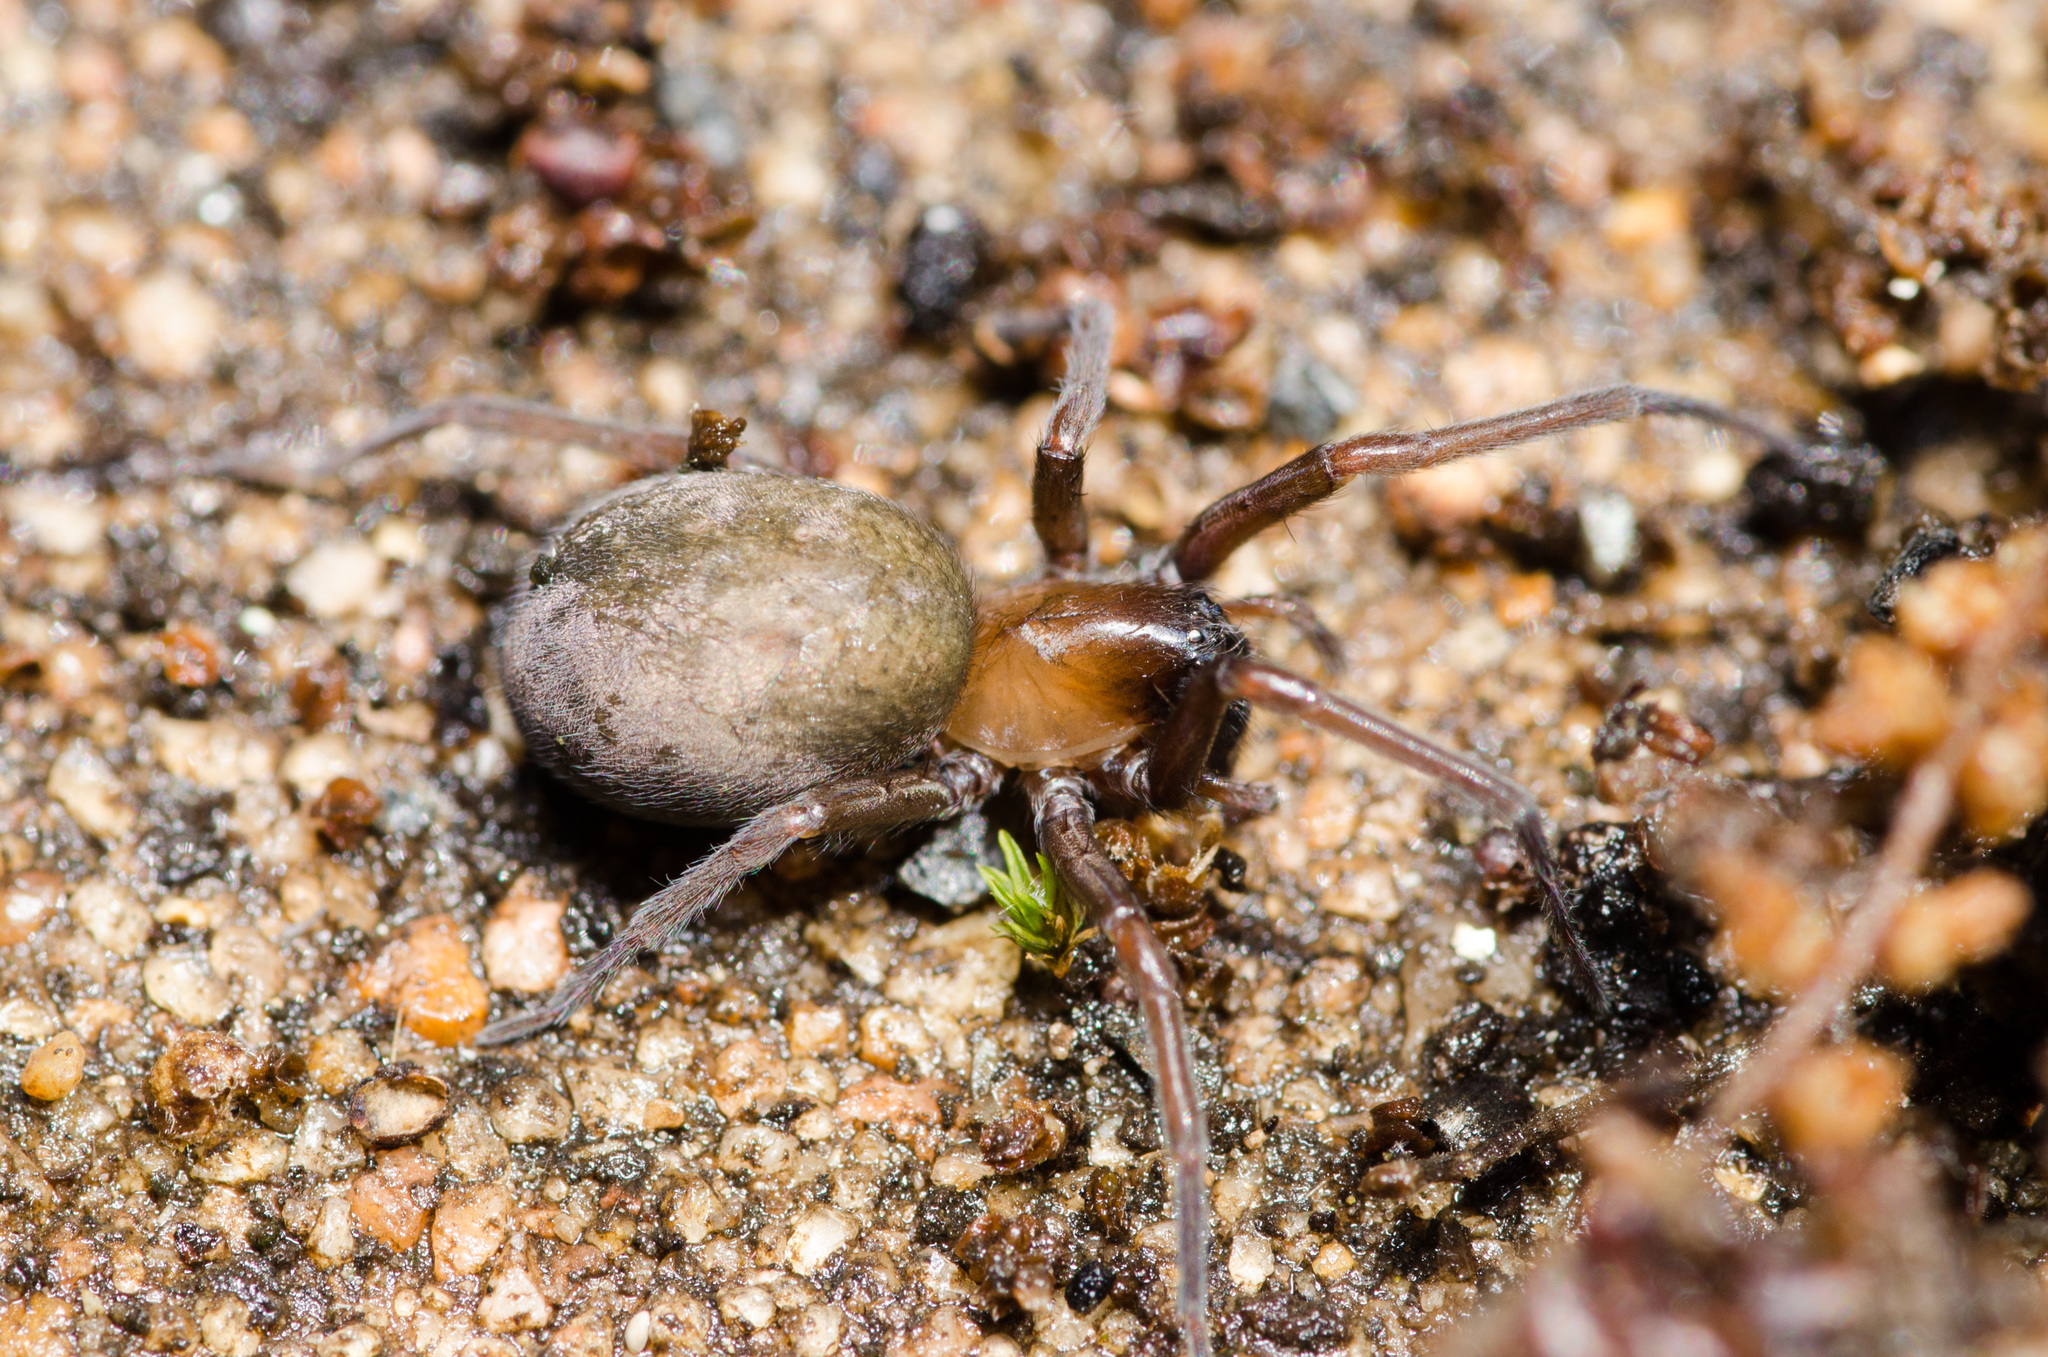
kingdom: Animalia
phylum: Arthropoda
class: Arachnida
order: Araneae
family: Desidae
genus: Metaltella
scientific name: Metaltella simoni
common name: Cribellate spider
